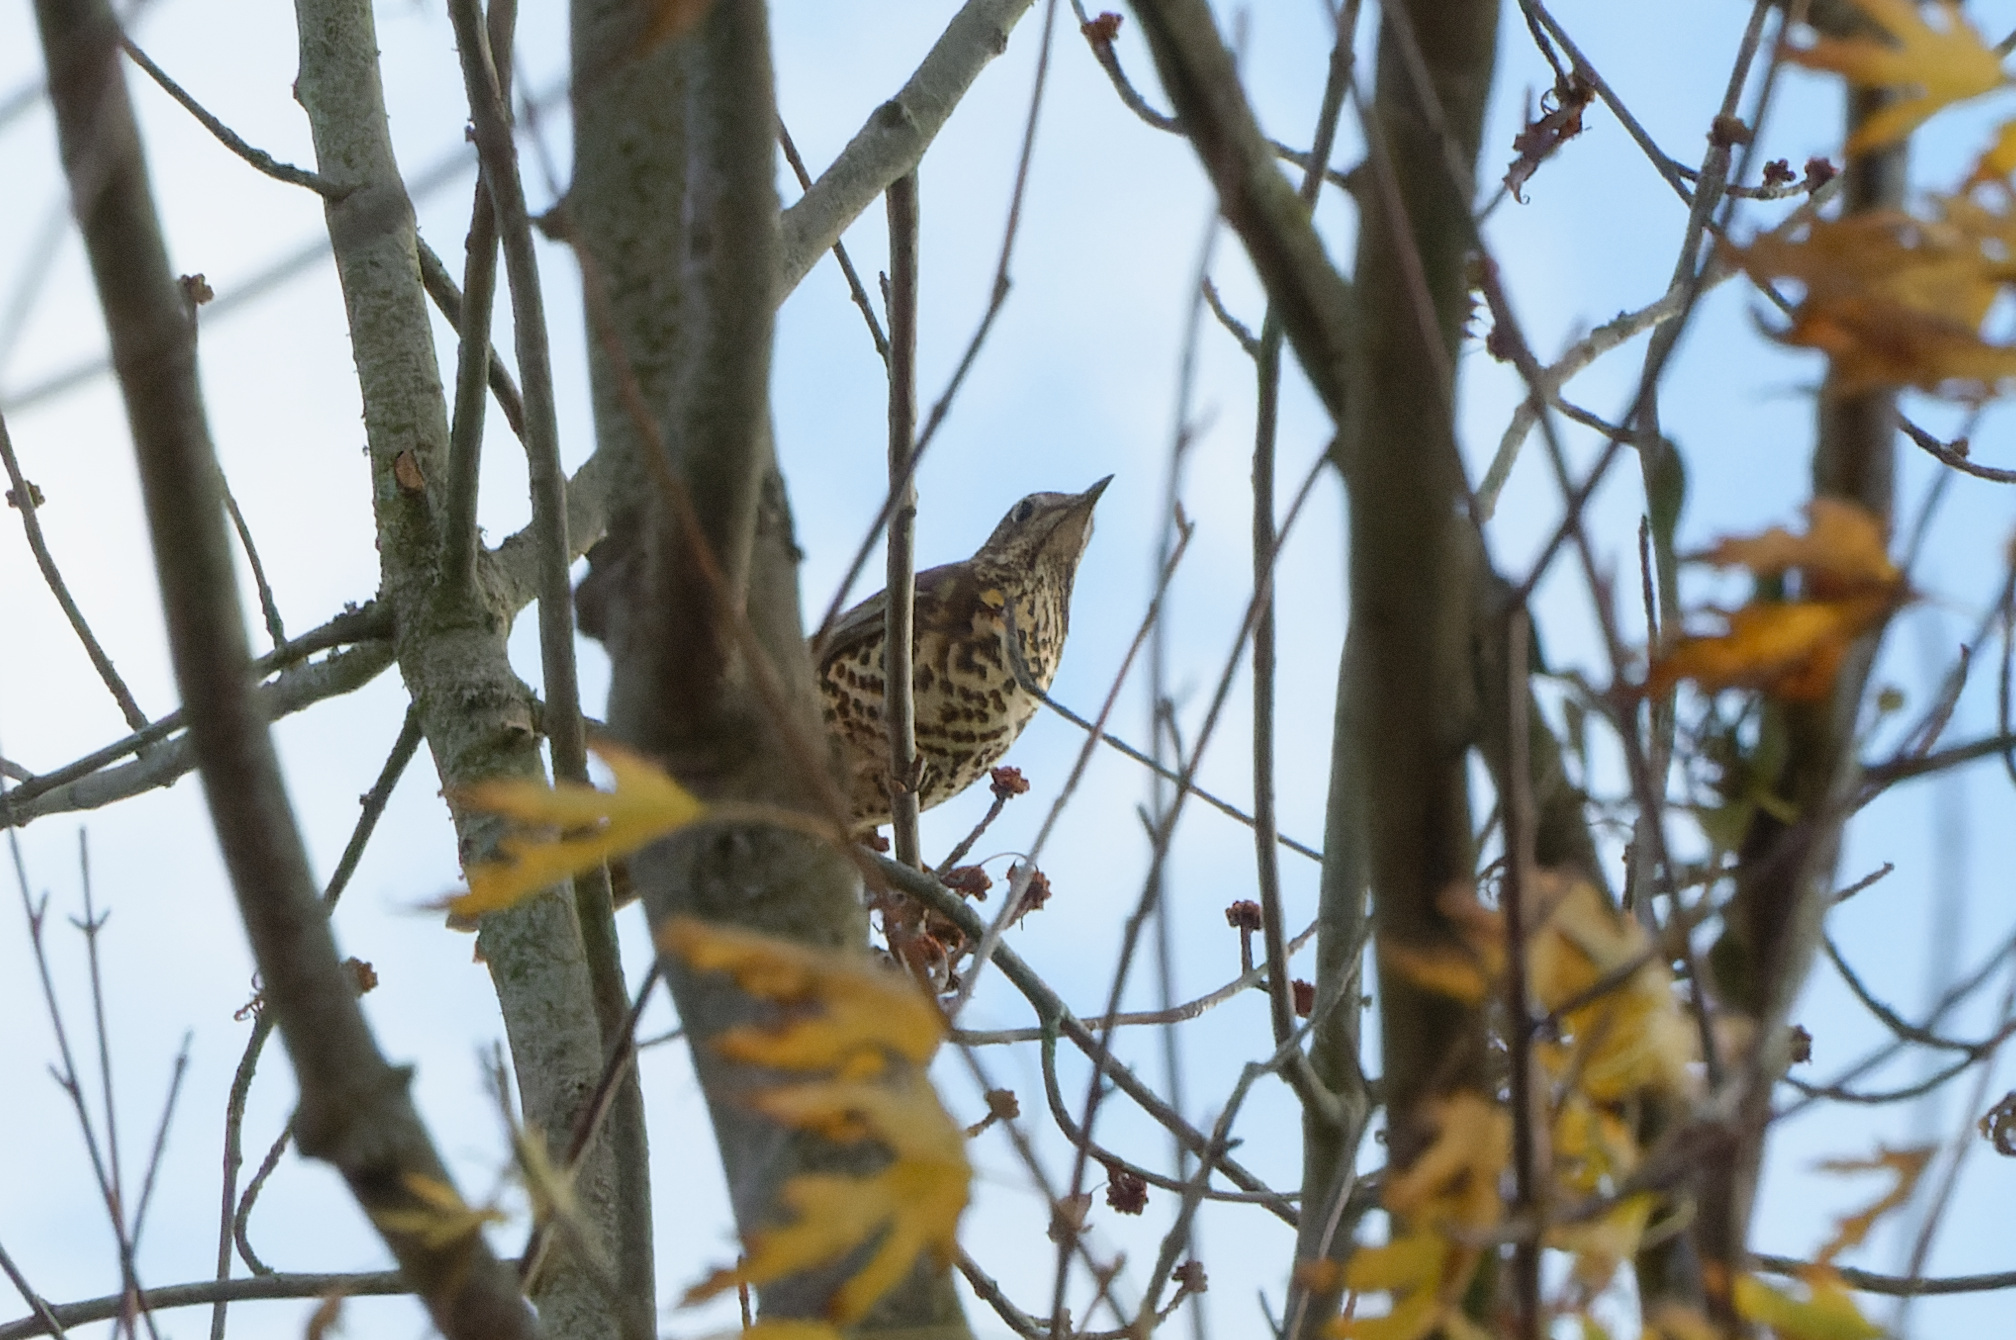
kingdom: Animalia
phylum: Chordata
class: Aves
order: Passeriformes
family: Turdidae
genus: Turdus
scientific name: Turdus viscivorus
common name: Mistle thrush
